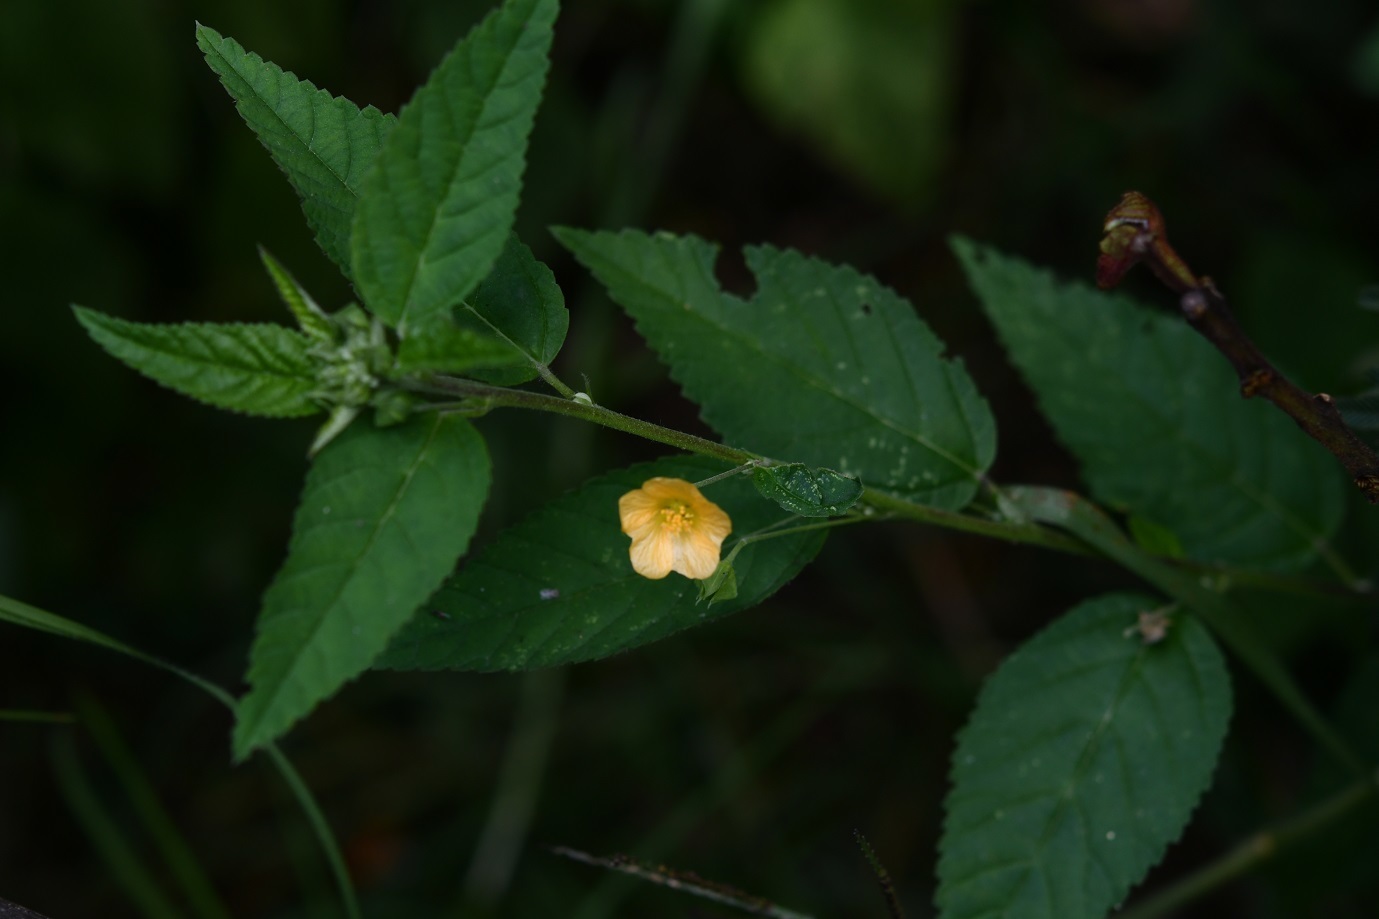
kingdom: Plantae
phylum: Tracheophyta
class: Magnoliopsida
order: Malvales
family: Malvaceae
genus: Sida
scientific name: Sida rhombifolia
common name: Queensland-hemp
